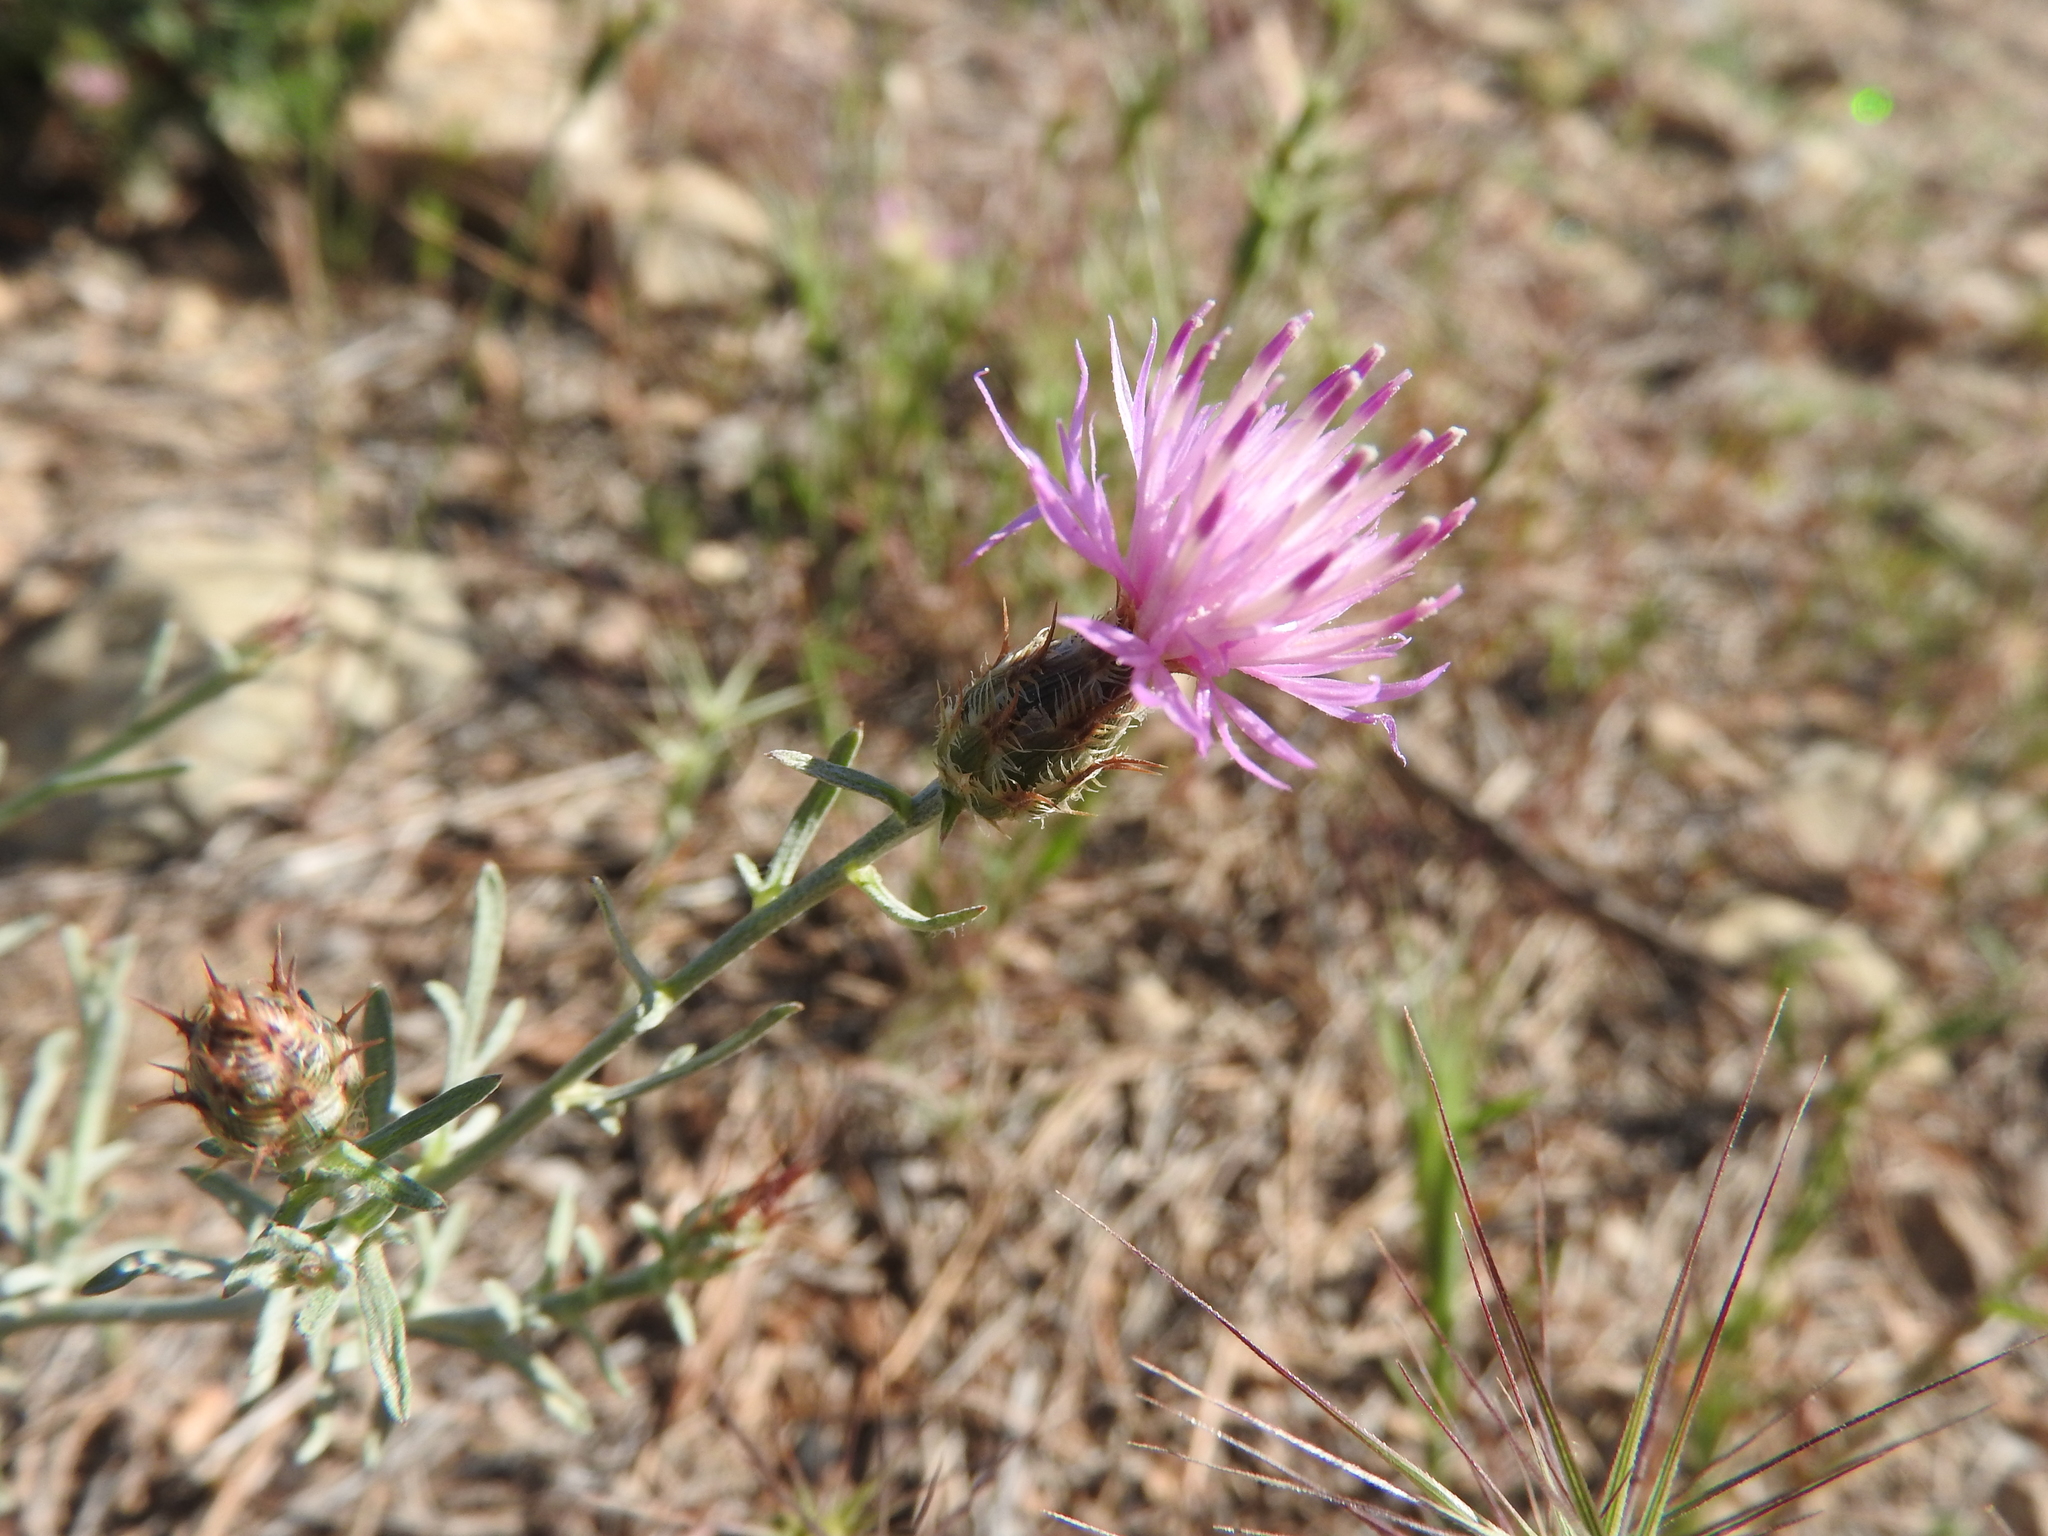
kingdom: Plantae
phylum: Tracheophyta
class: Magnoliopsida
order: Asterales
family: Asteraceae
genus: Centaurea
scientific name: Centaurea parviflora
